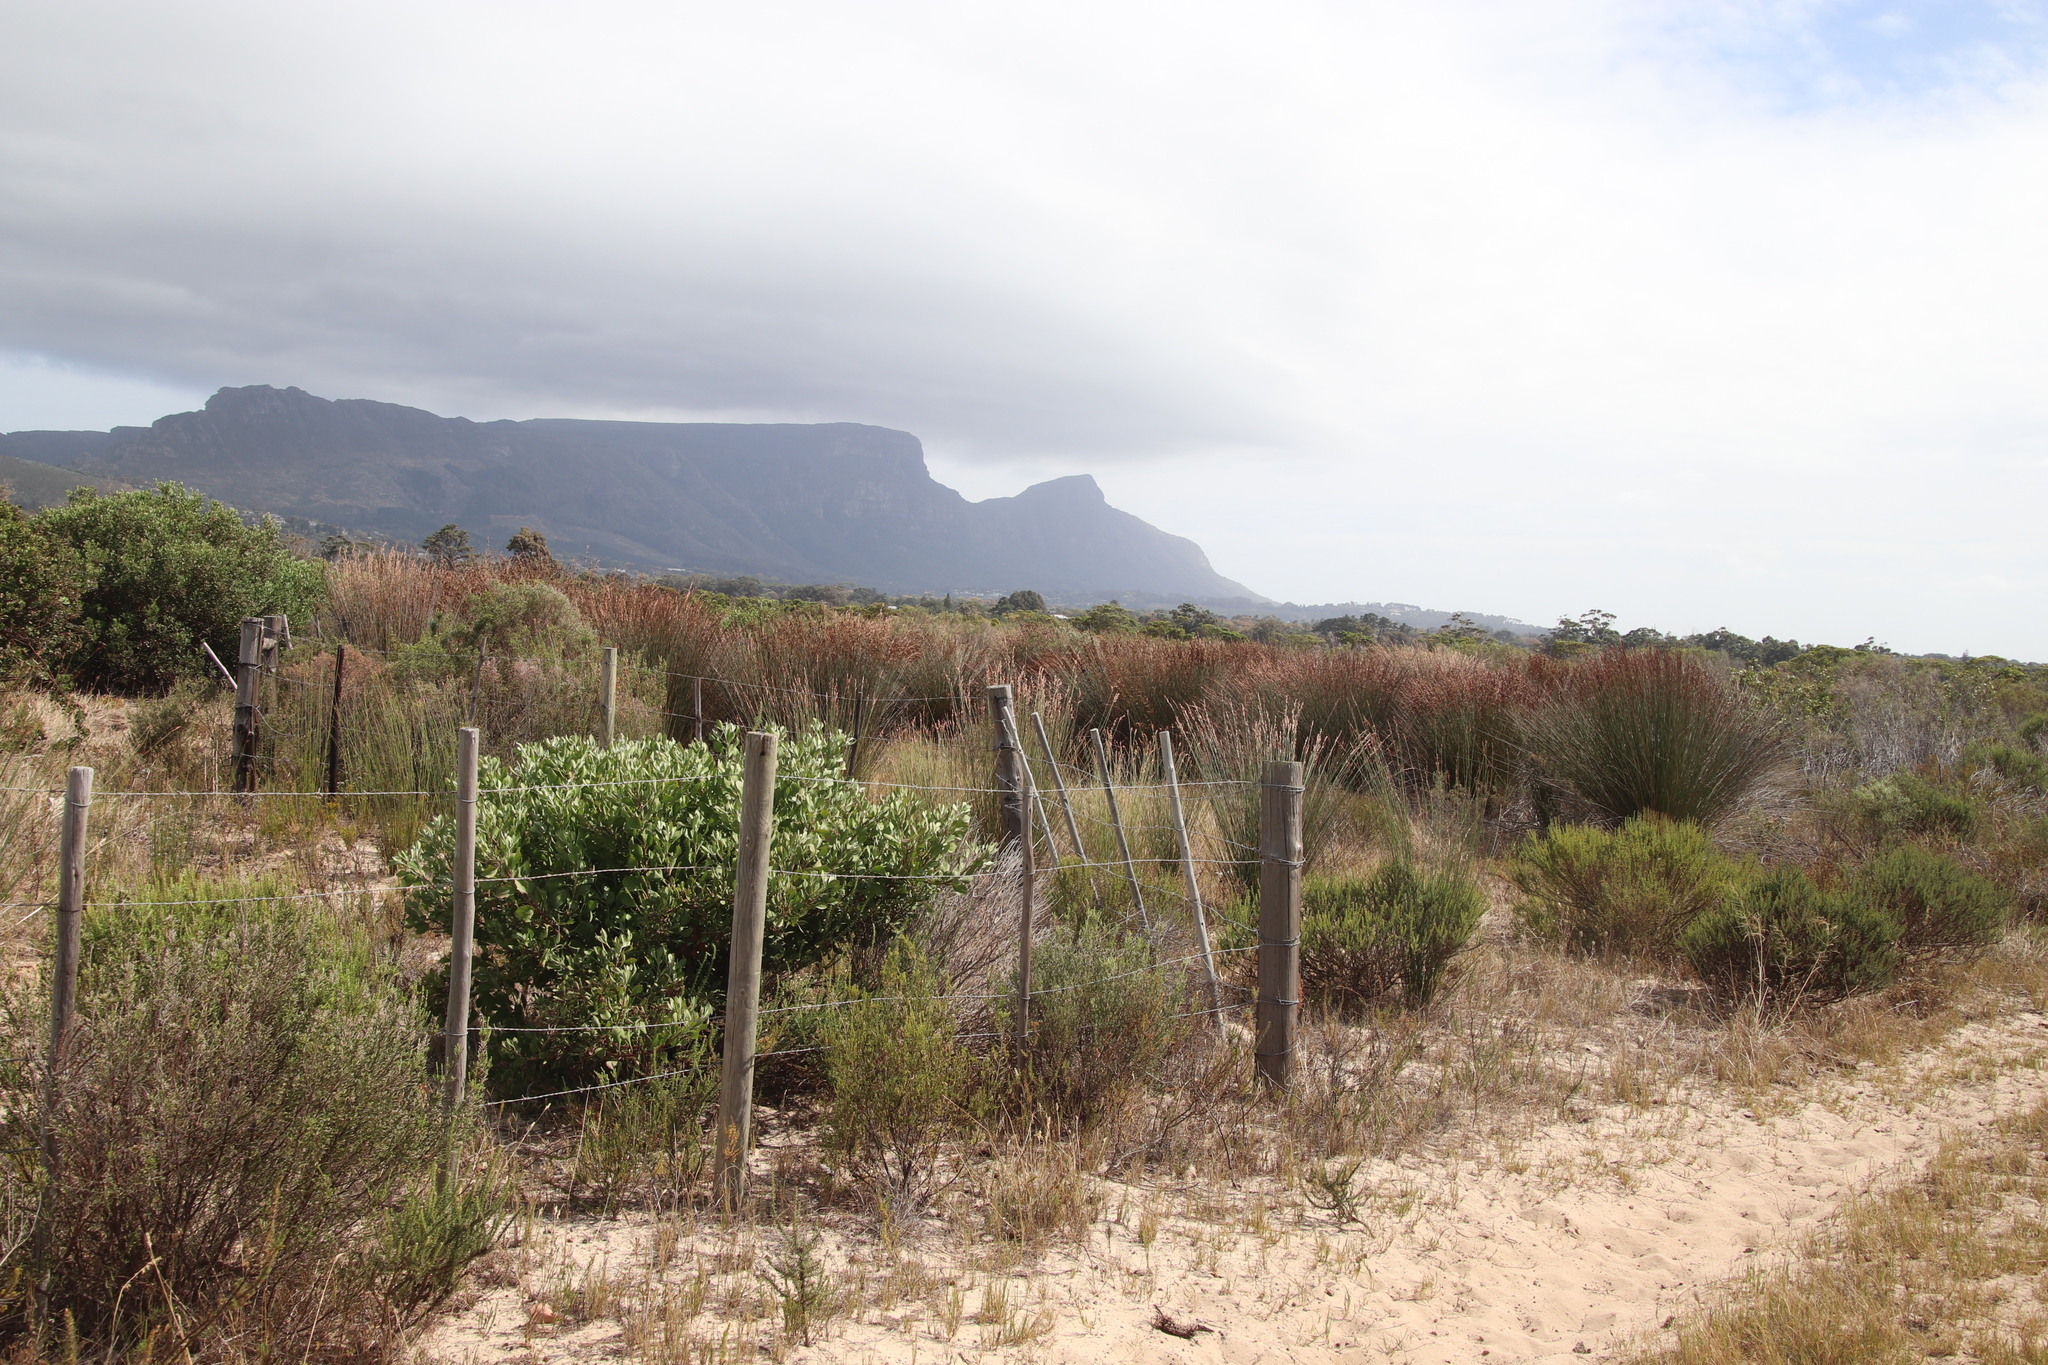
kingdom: Plantae
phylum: Tracheophyta
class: Liliopsida
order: Poales
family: Restionaceae
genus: Thamnochortus
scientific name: Thamnochortus insignis
